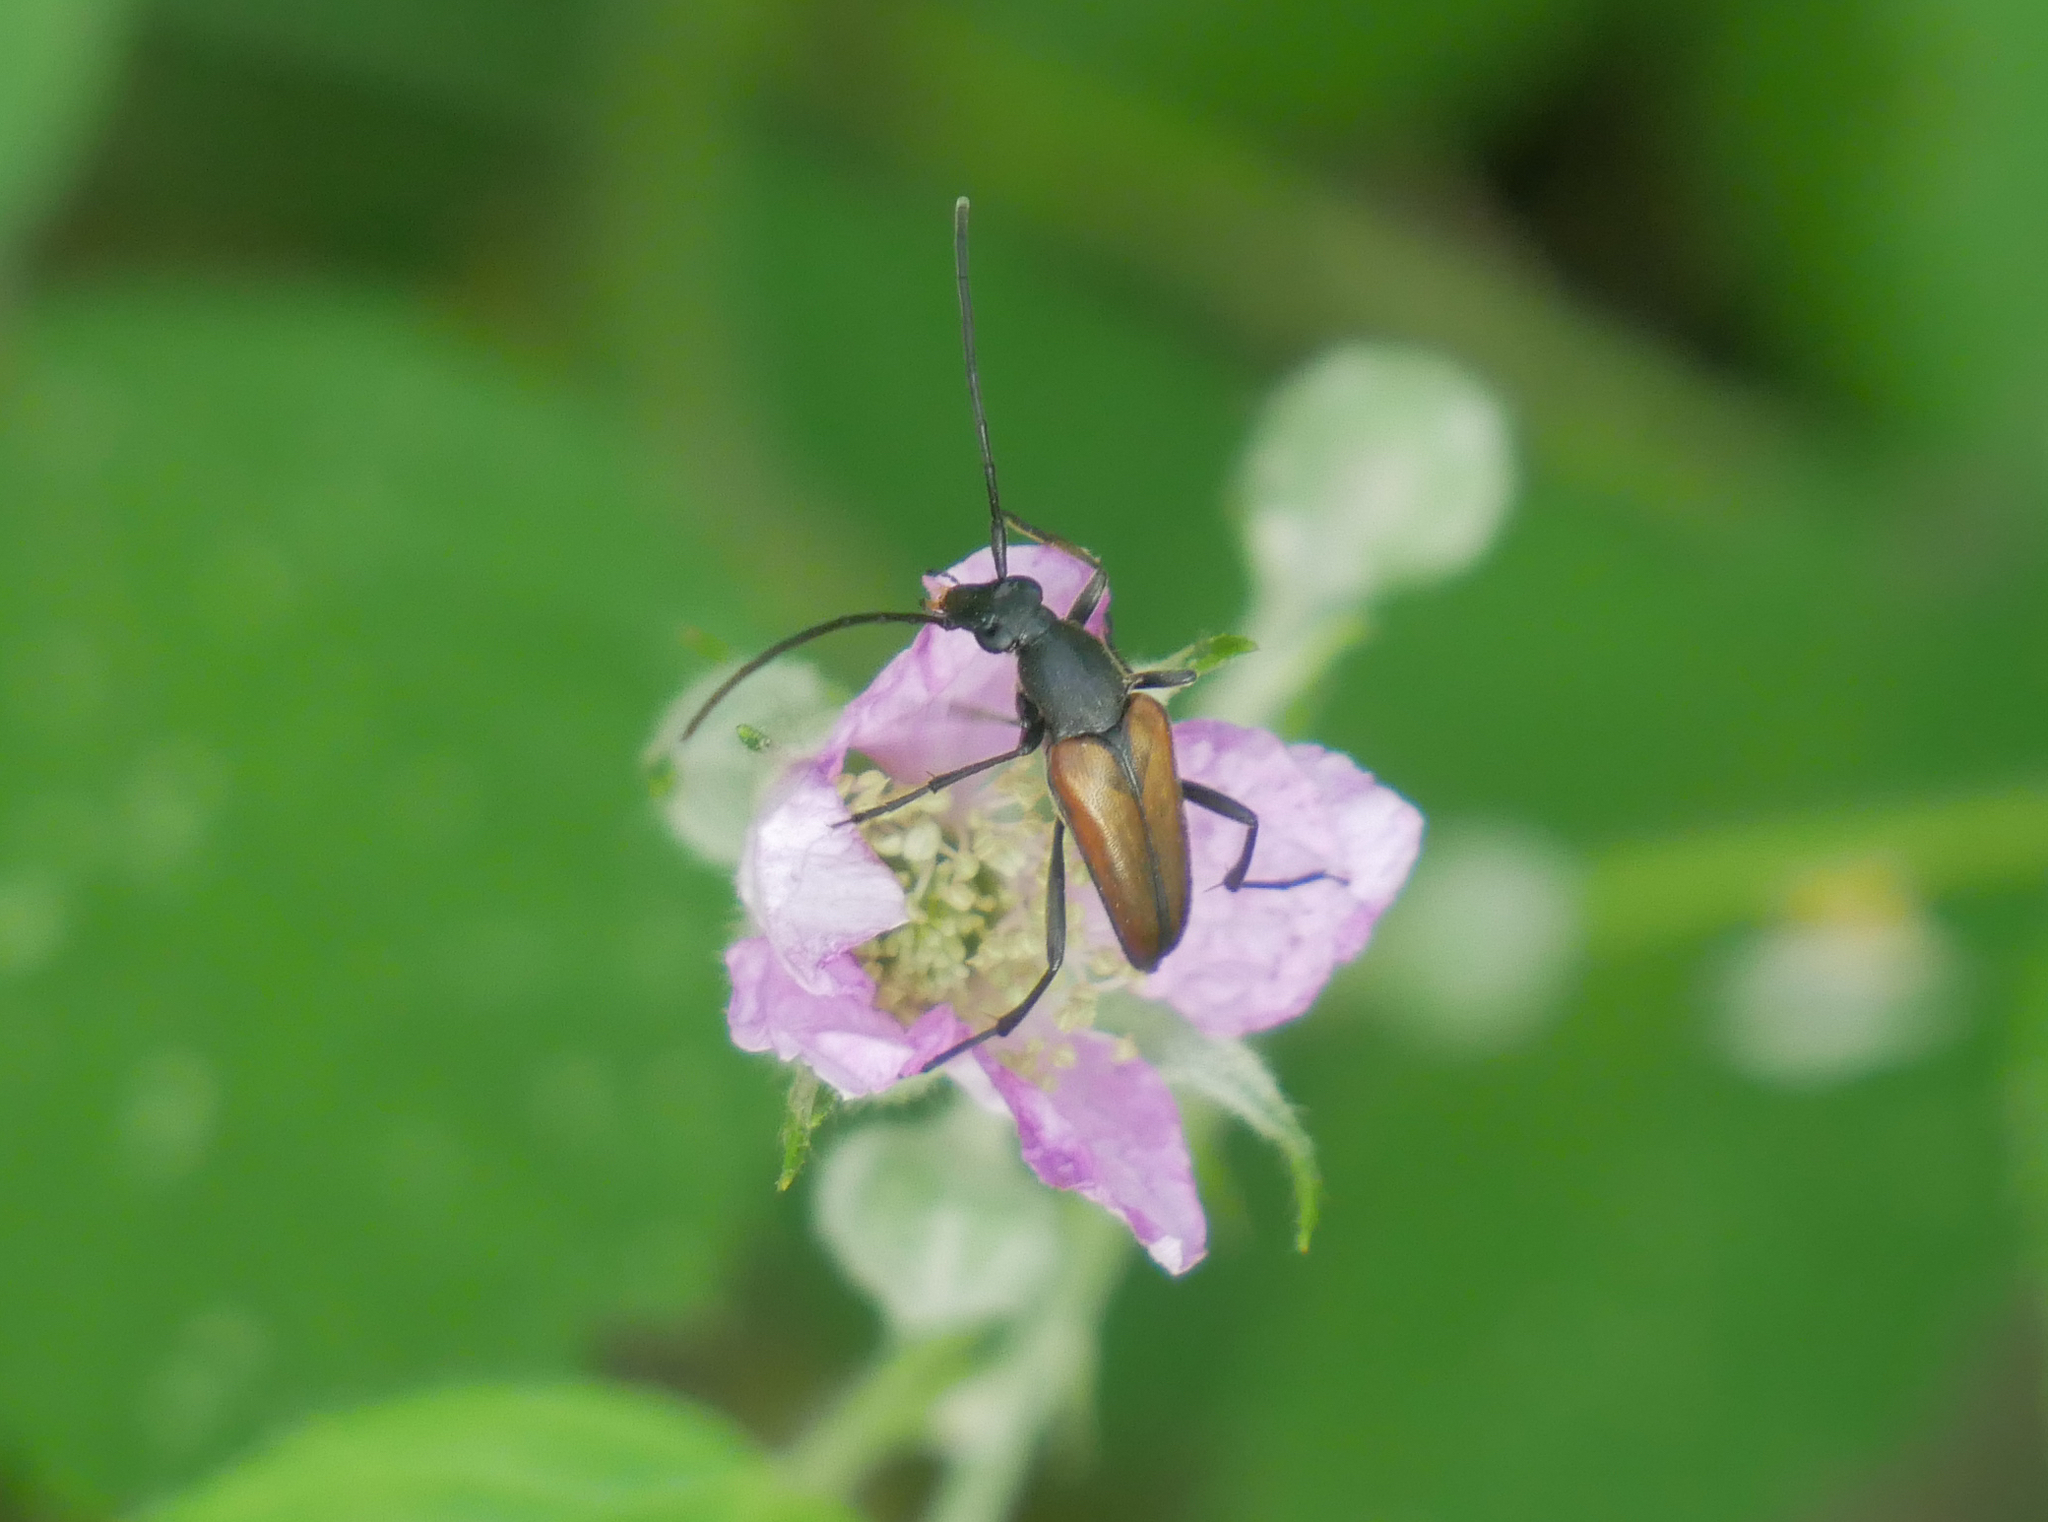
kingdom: Animalia
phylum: Arthropoda
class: Insecta
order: Coleoptera
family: Cerambycidae
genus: Stenurella
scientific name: Stenurella melanura
